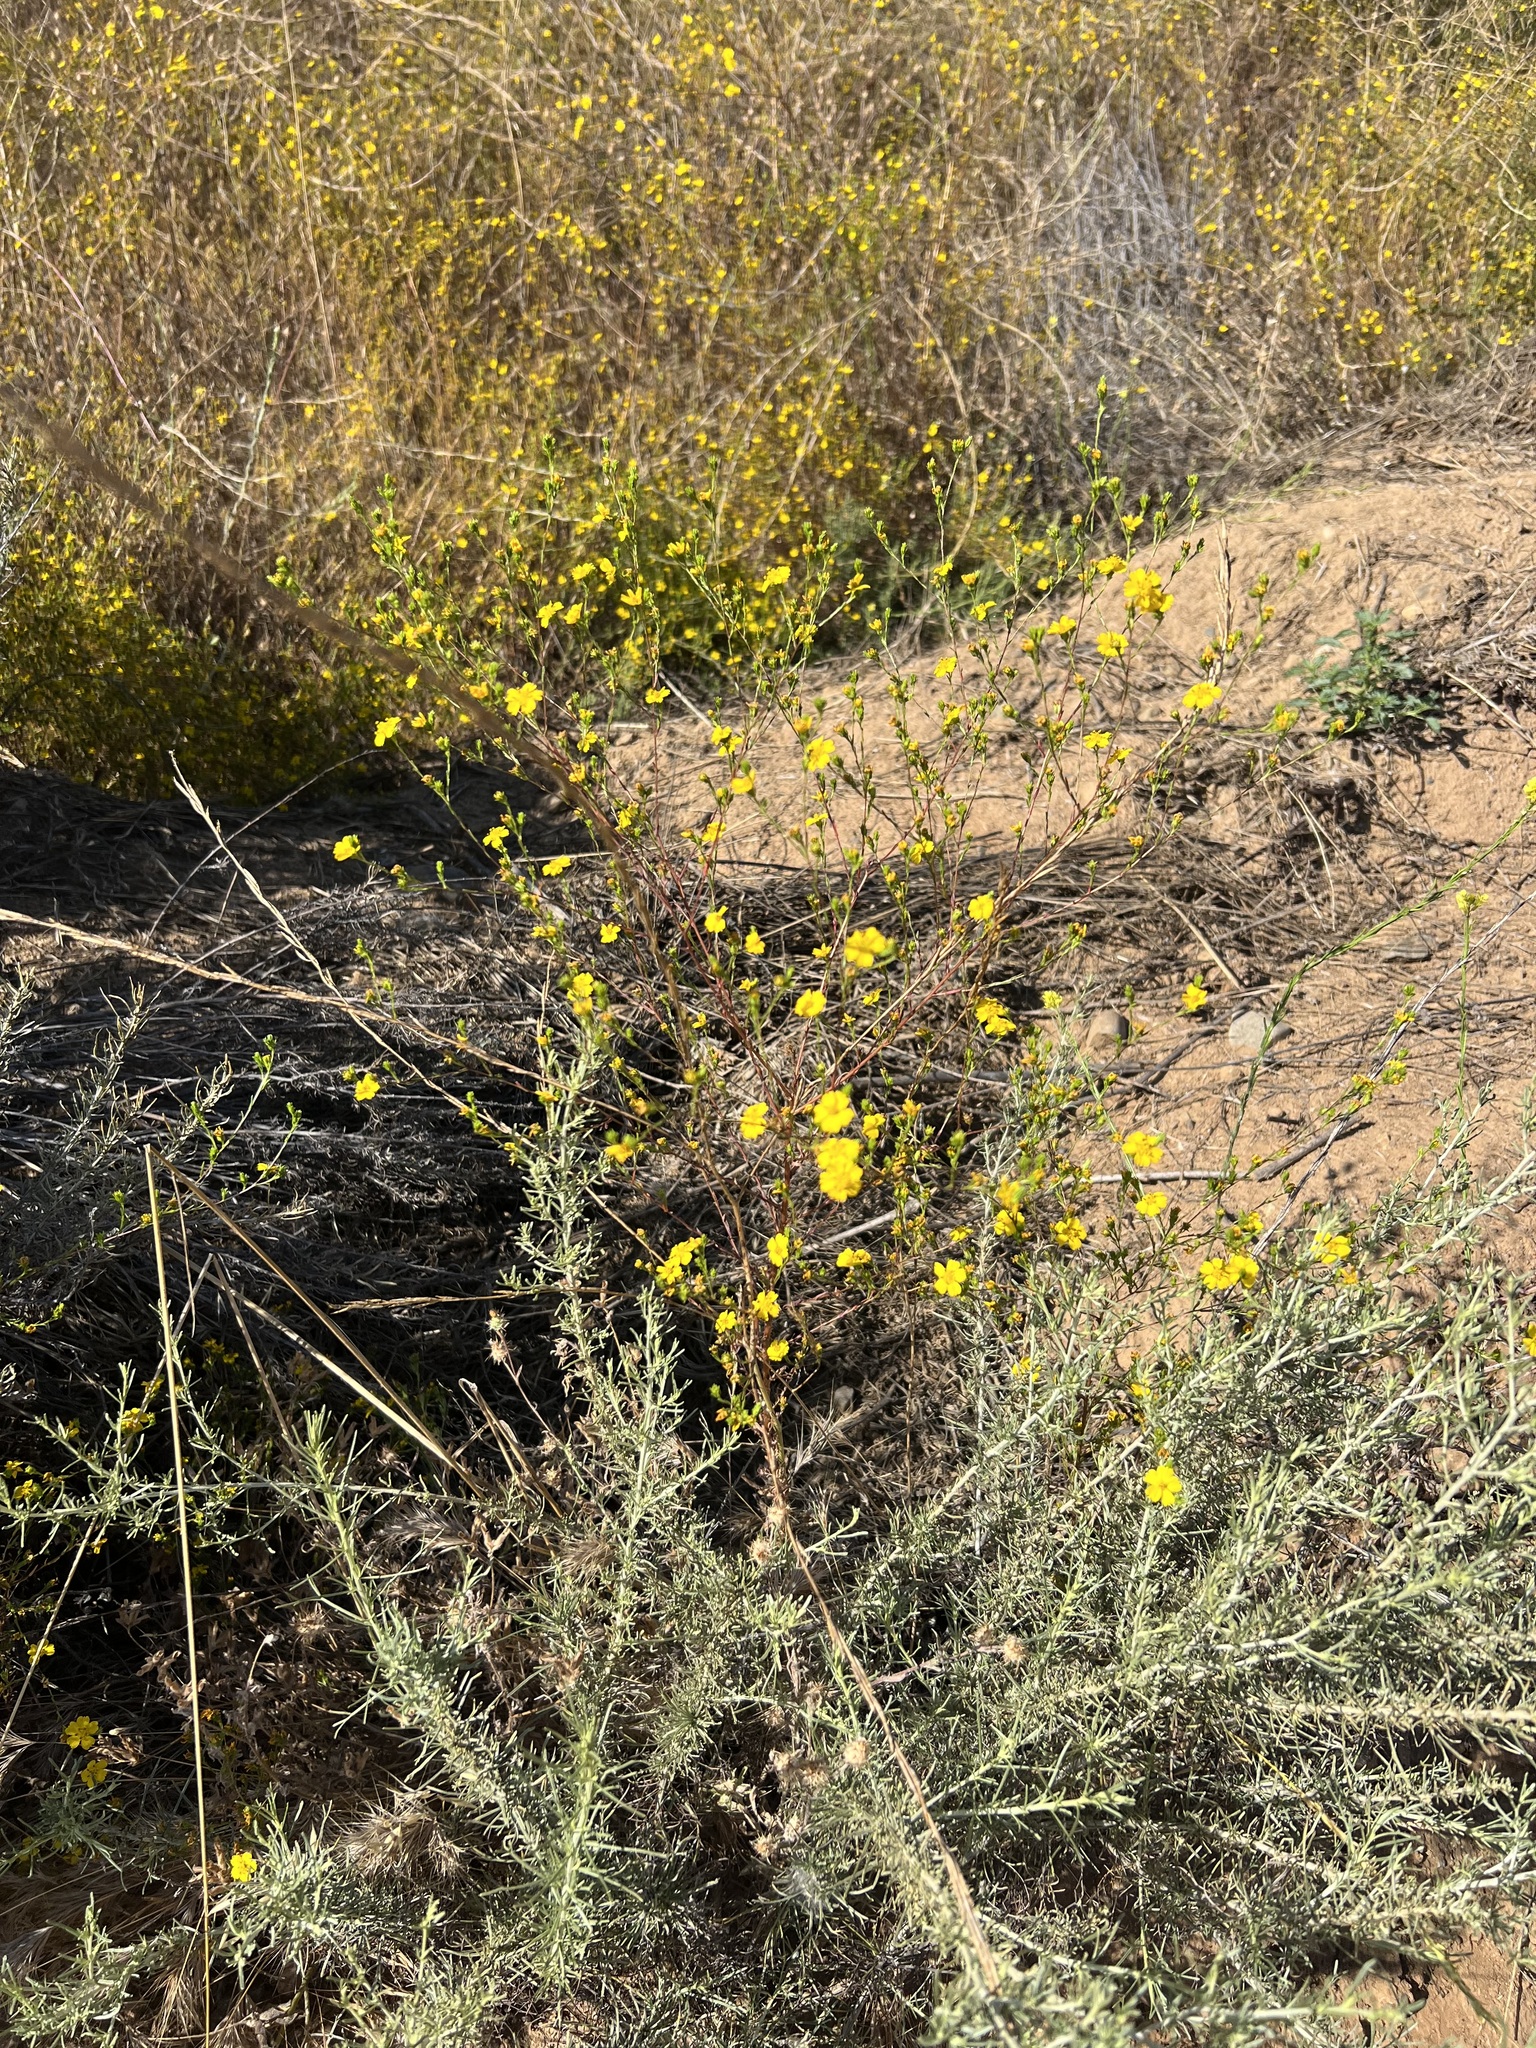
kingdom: Plantae
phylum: Tracheophyta
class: Magnoliopsida
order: Asterales
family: Asteraceae
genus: Deinandra
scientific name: Deinandra fasciculata
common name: Clustered tarweed
